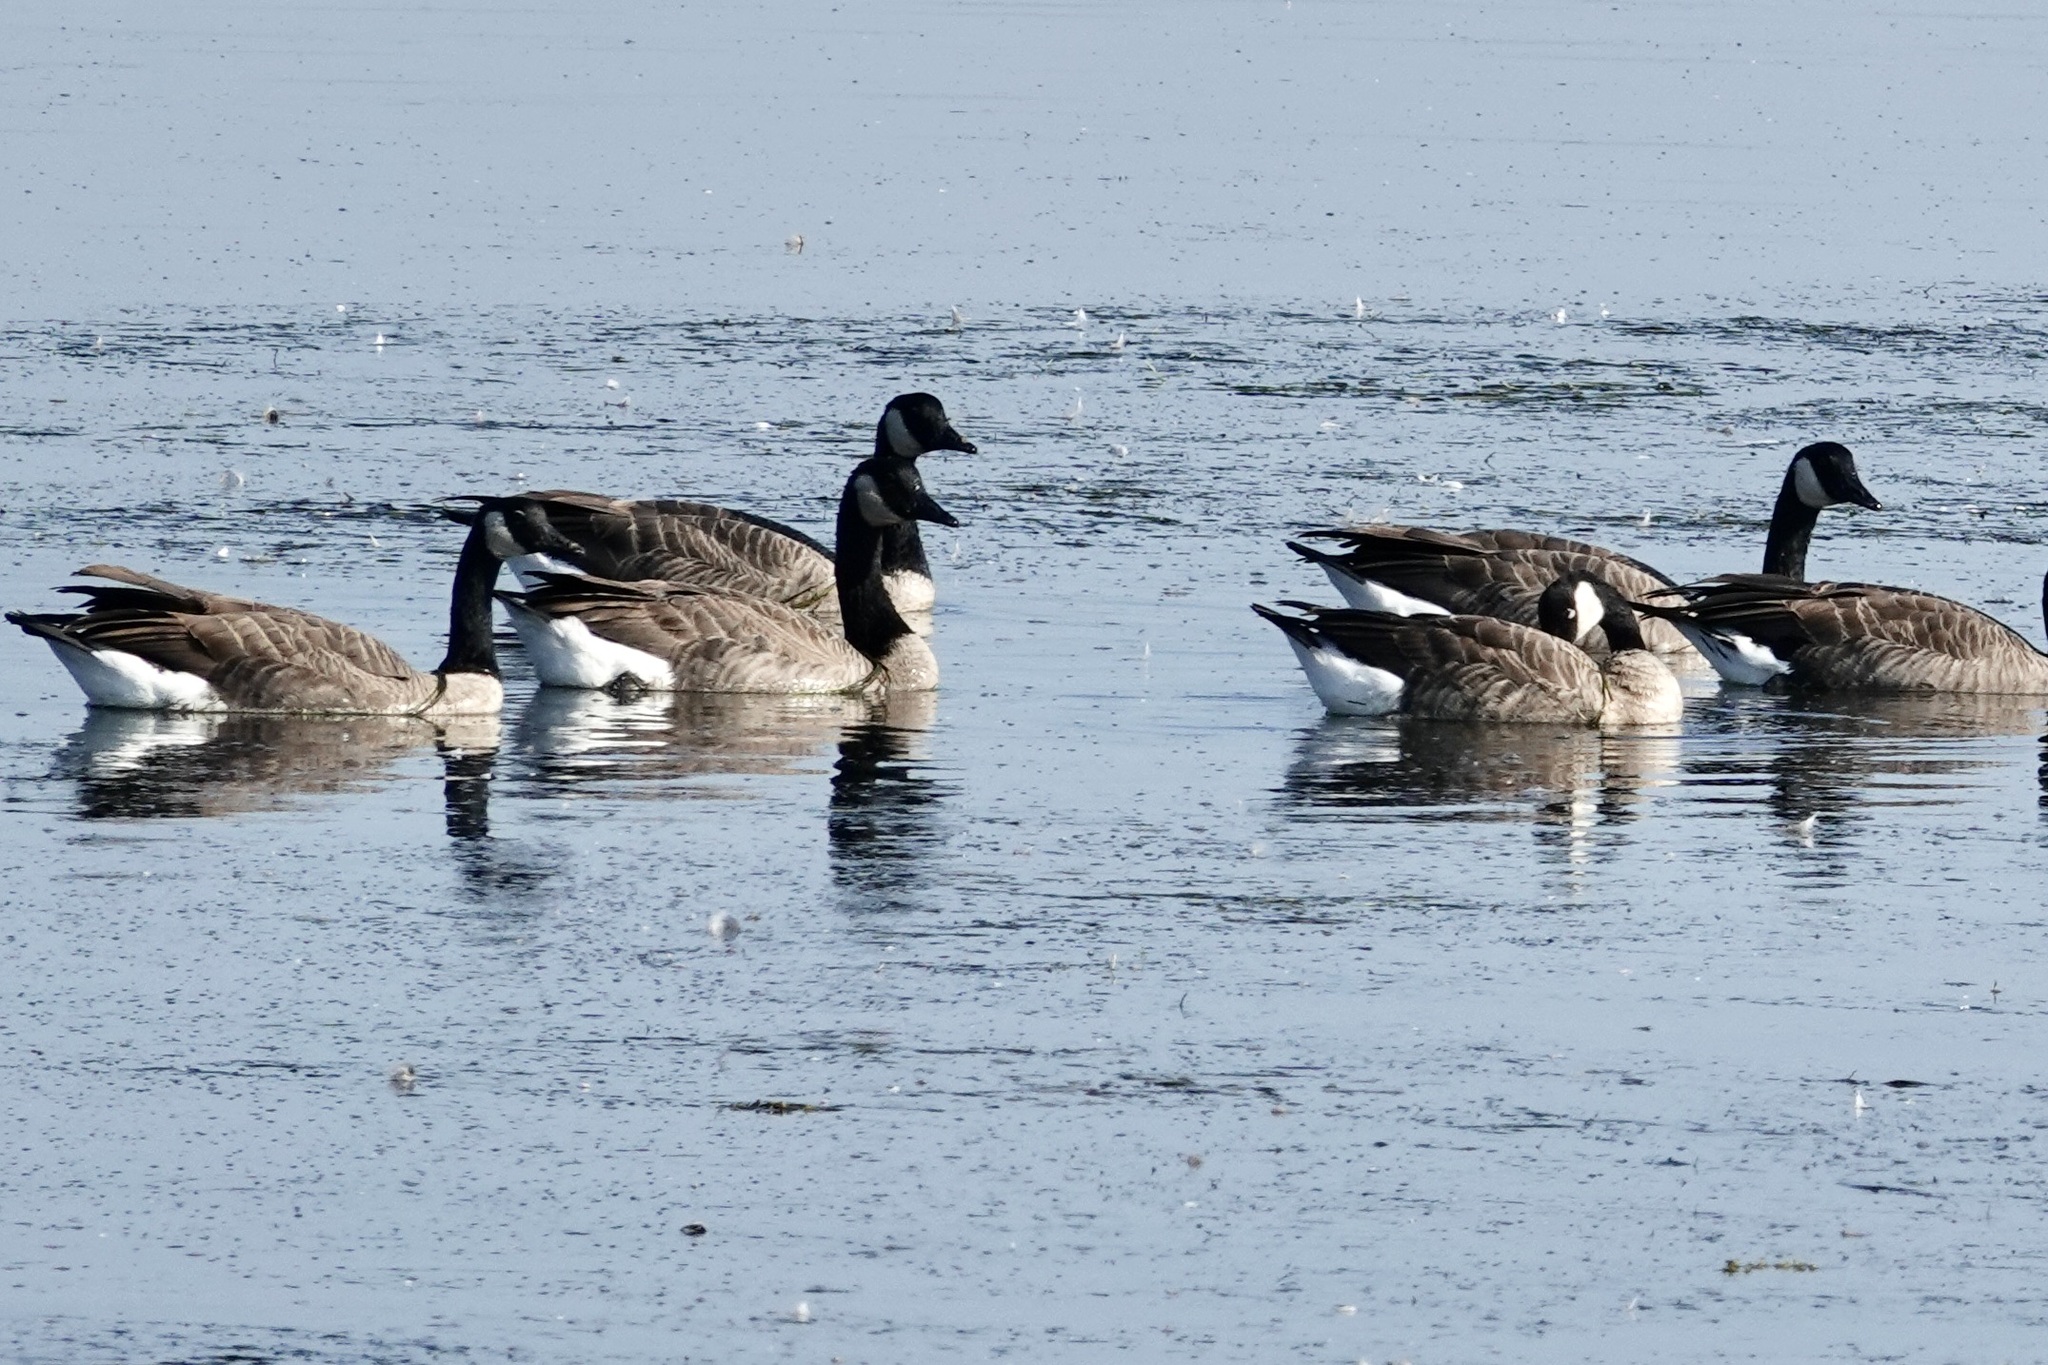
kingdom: Animalia
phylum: Chordata
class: Aves
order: Anseriformes
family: Anatidae
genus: Branta
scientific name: Branta canadensis
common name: Canada goose
